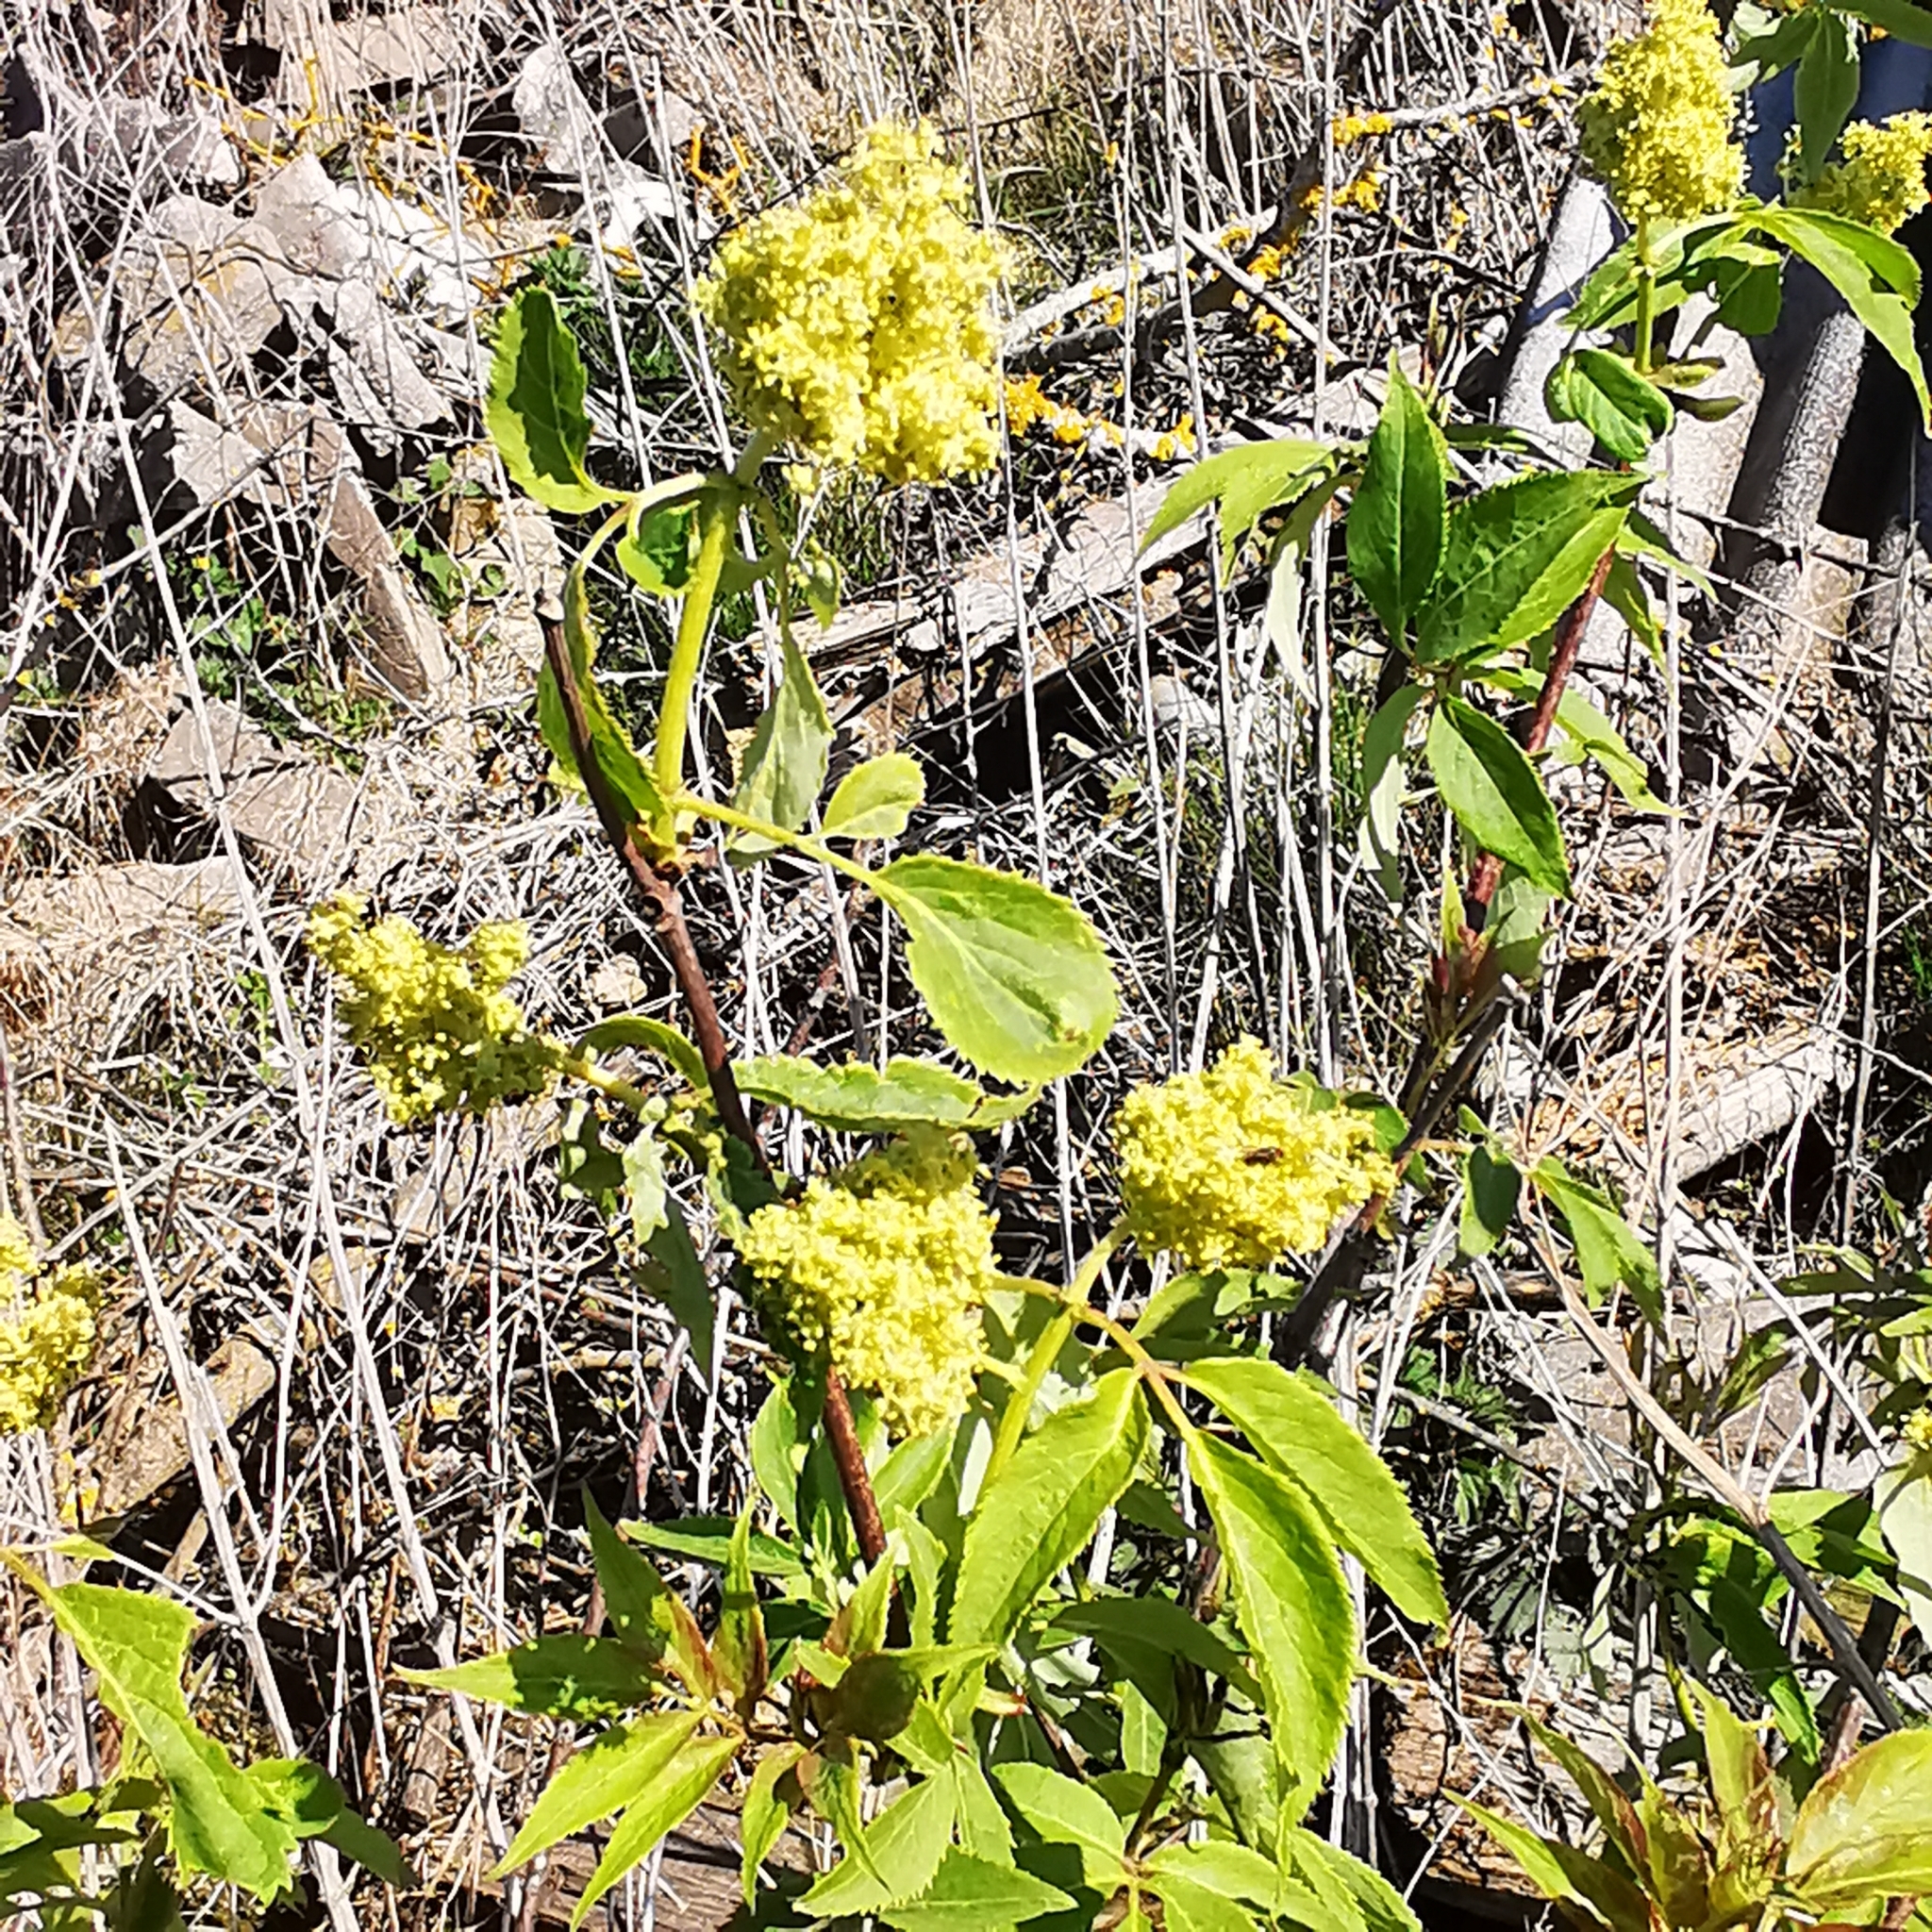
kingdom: Plantae
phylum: Tracheophyta
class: Magnoliopsida
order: Dipsacales
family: Viburnaceae
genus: Sambucus
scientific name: Sambucus racemosa
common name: Red-berried elder
